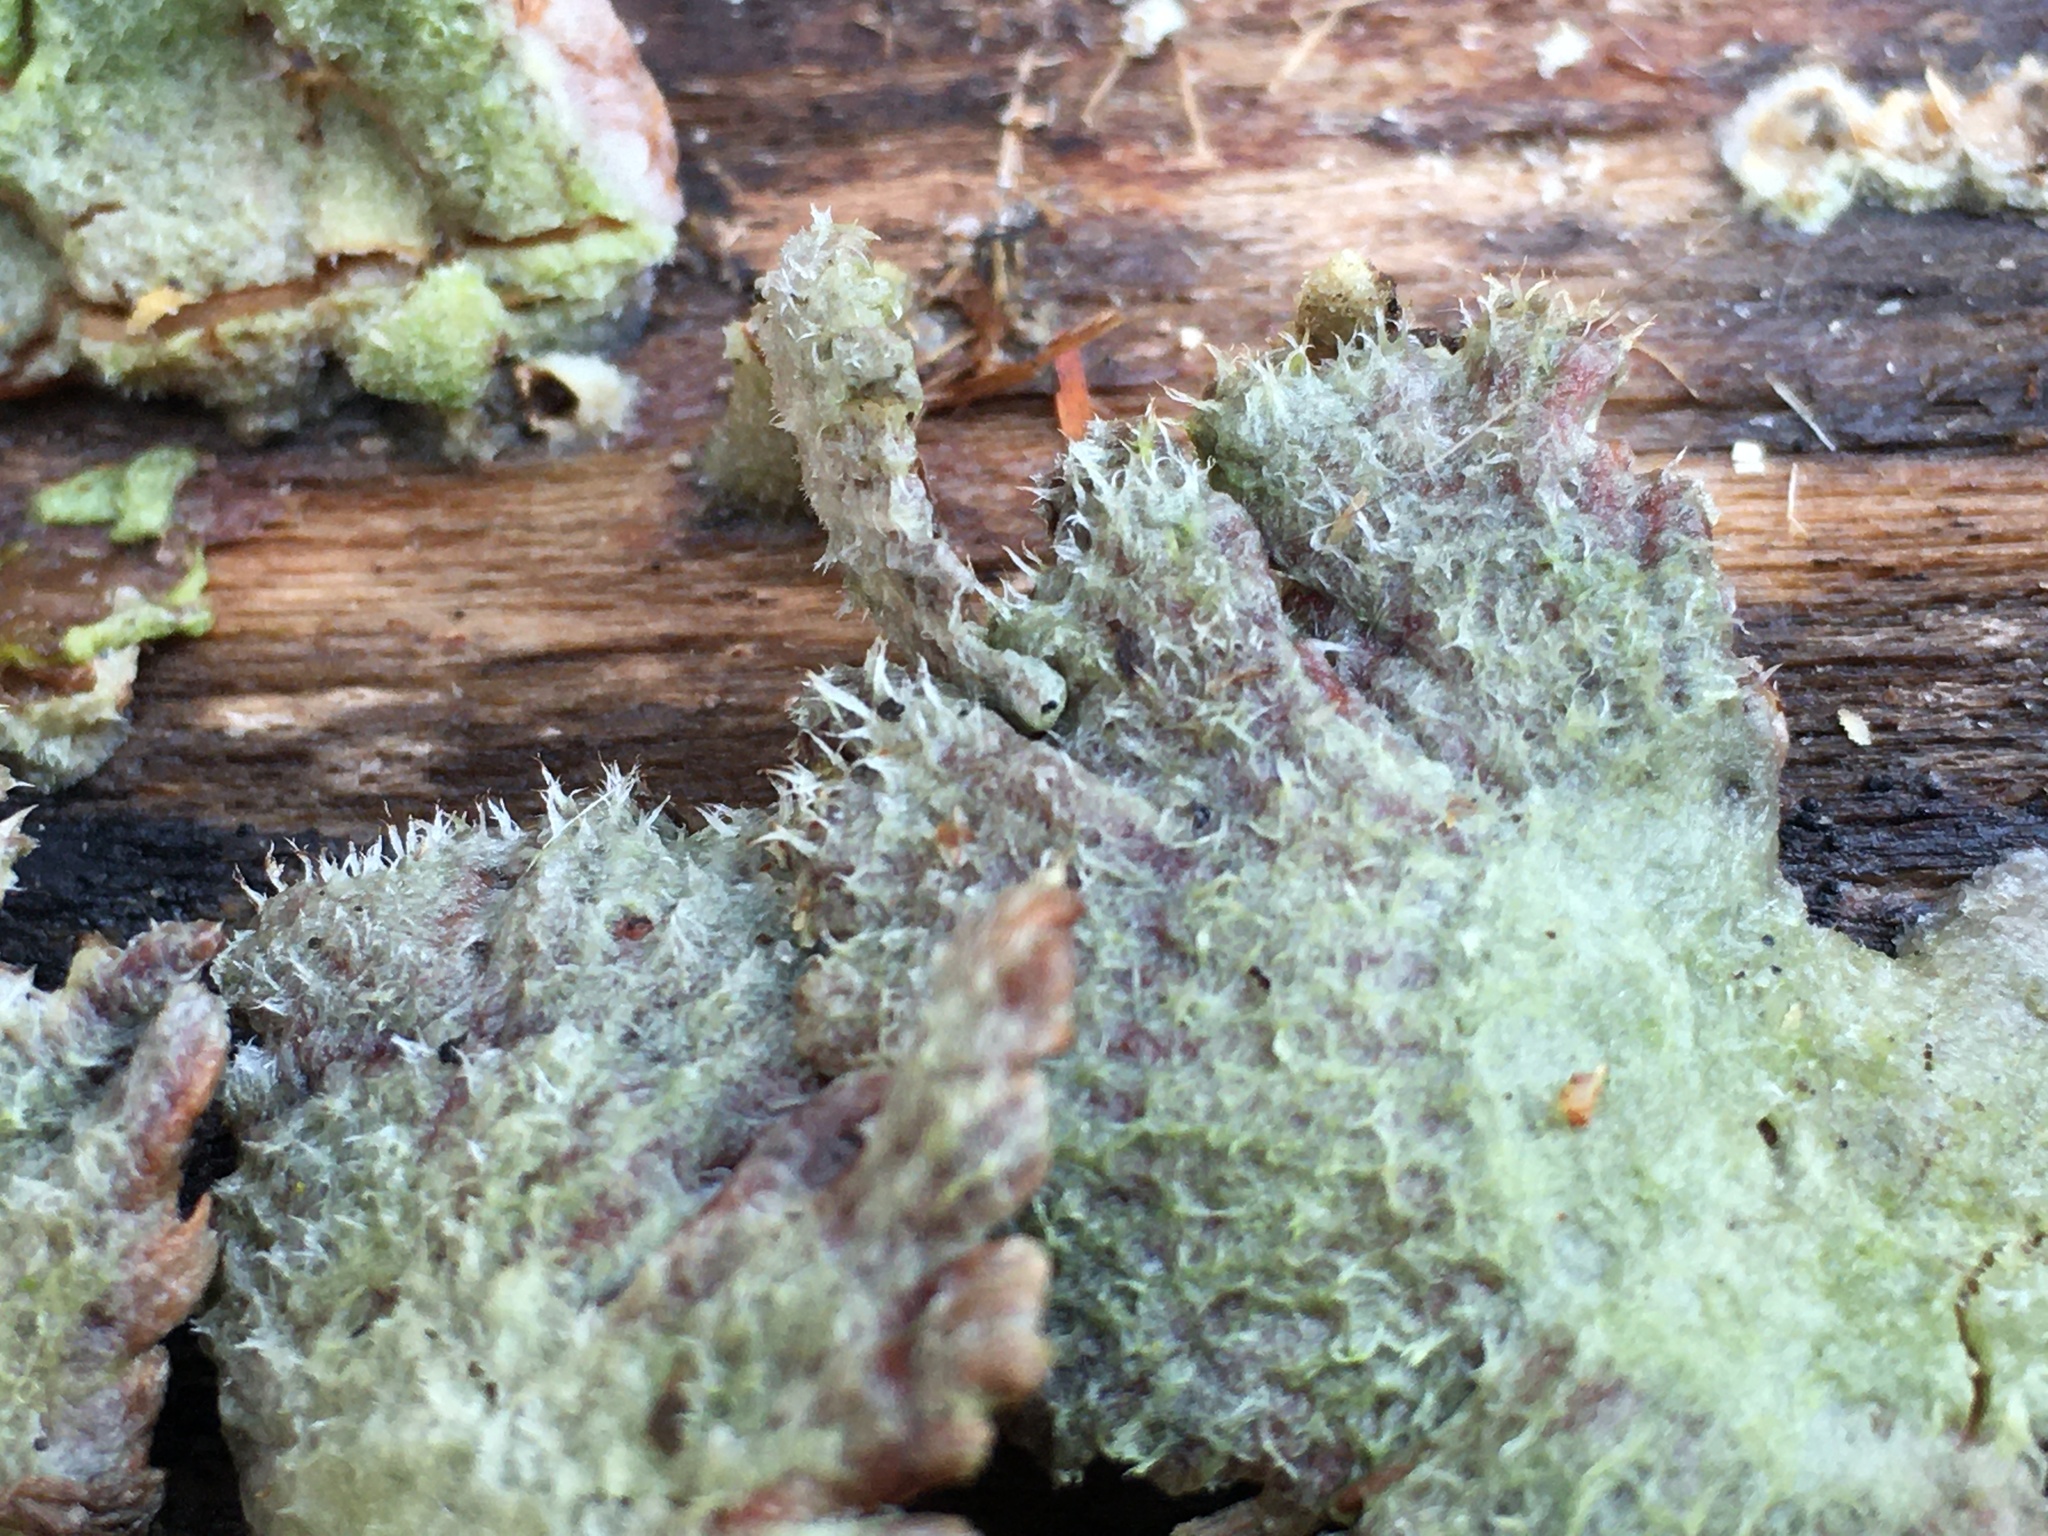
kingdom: Fungi
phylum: Basidiomycota
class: Agaricomycetes
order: Agaricales
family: Schizophyllaceae
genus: Schizophyllum
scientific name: Schizophyllum commune
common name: Common porecrust
